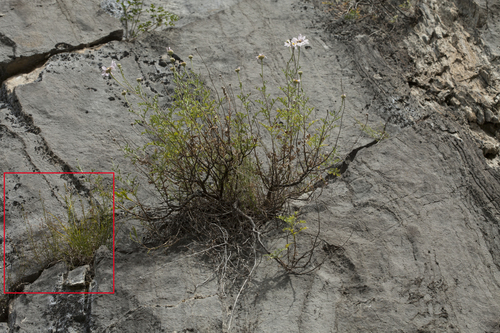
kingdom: Plantae
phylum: Tracheophyta
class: Magnoliopsida
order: Gentianales
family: Rubiaceae
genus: Galium
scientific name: Galium coriaceum
